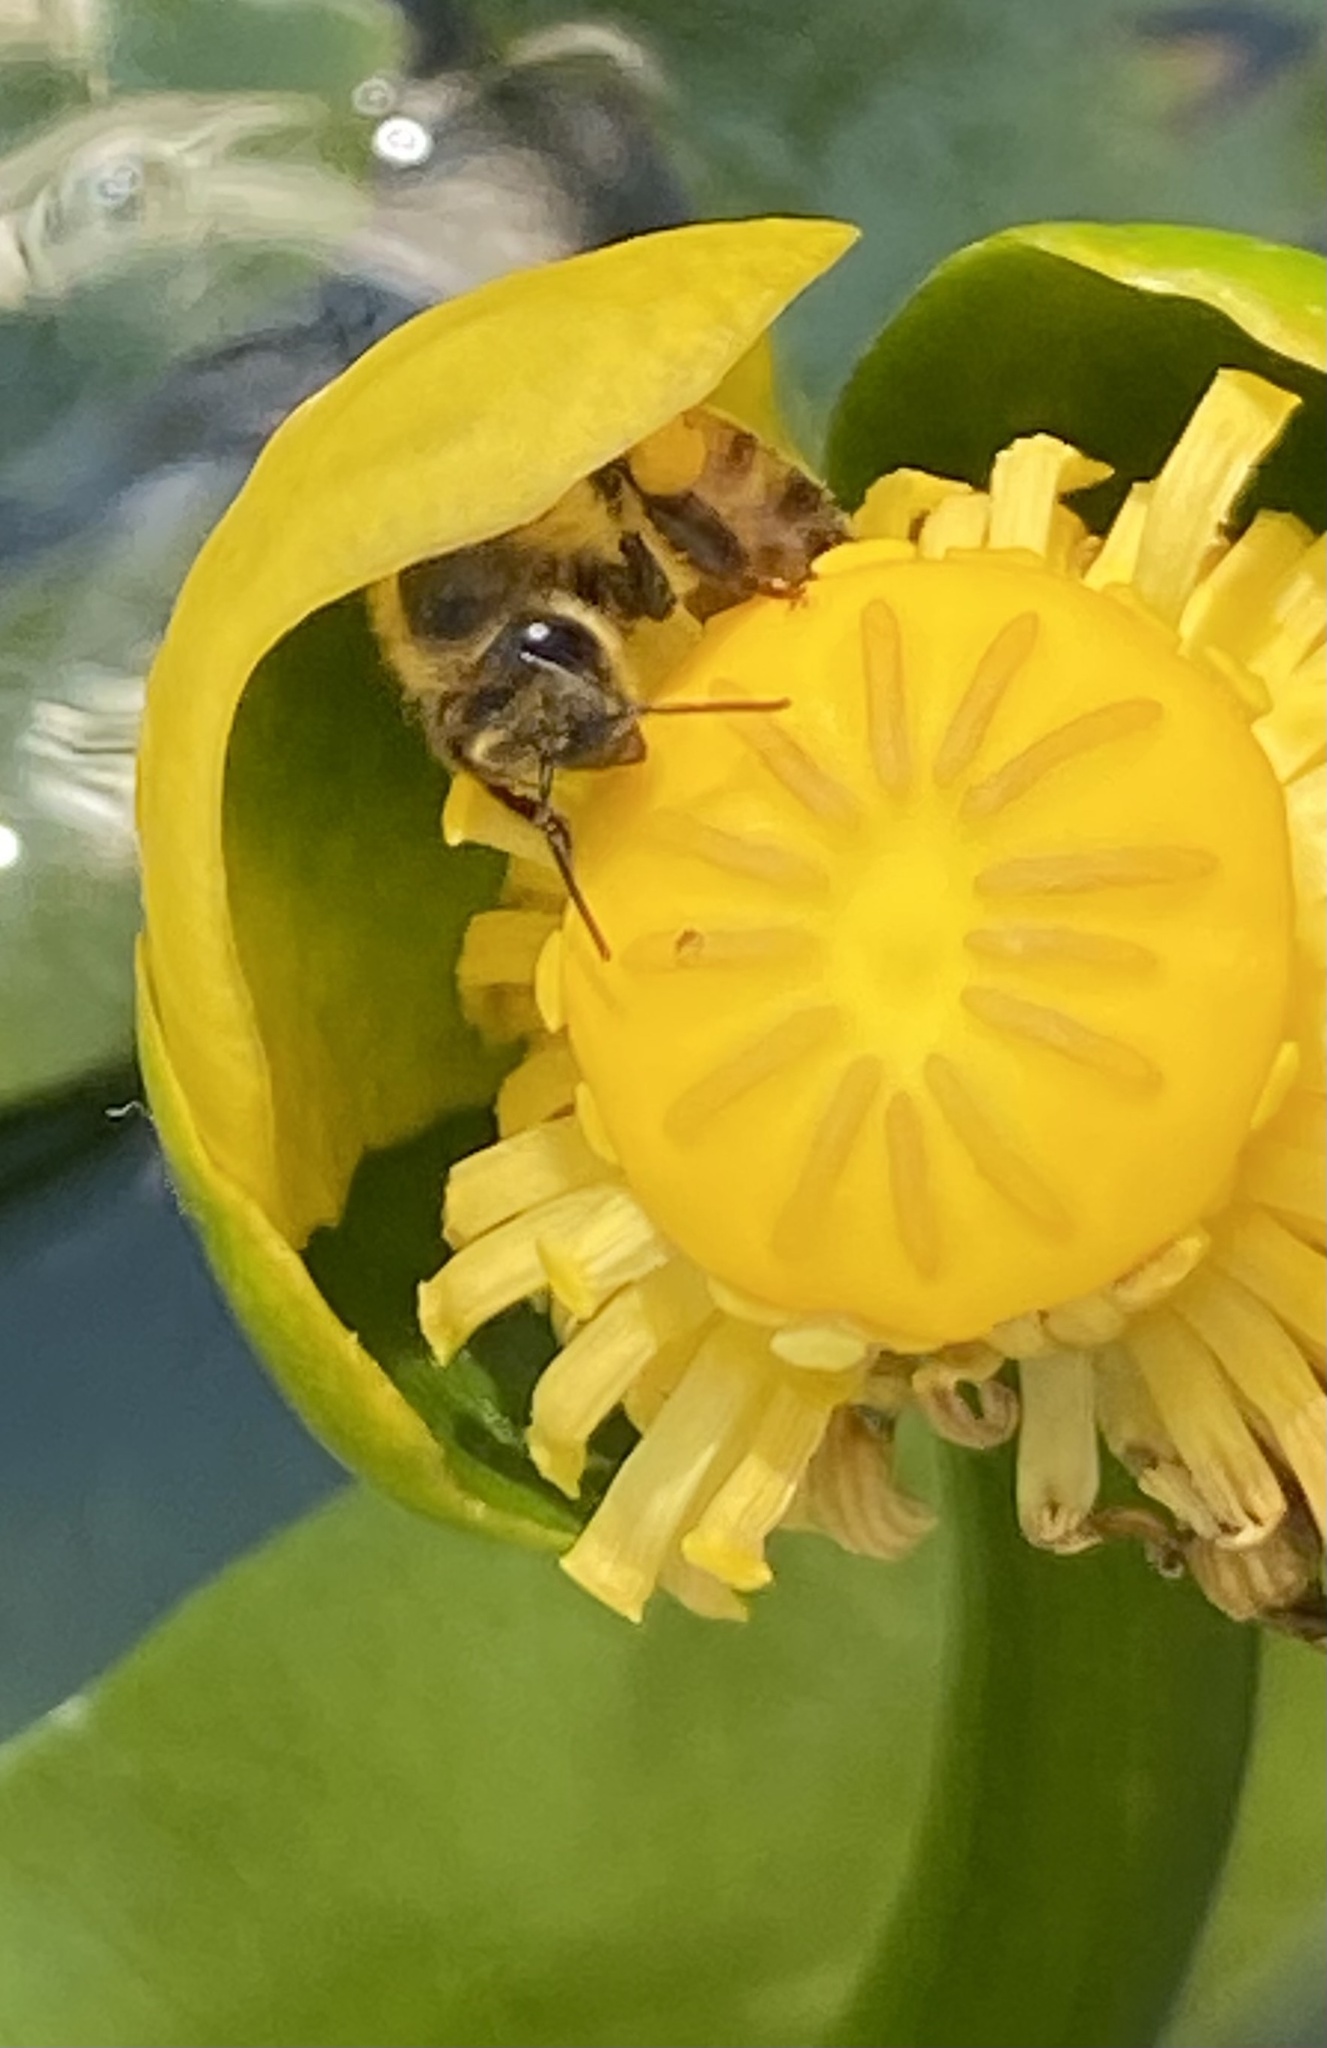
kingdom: Animalia
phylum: Arthropoda
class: Insecta
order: Hymenoptera
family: Apidae
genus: Apis
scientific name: Apis mellifera
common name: Honey bee
